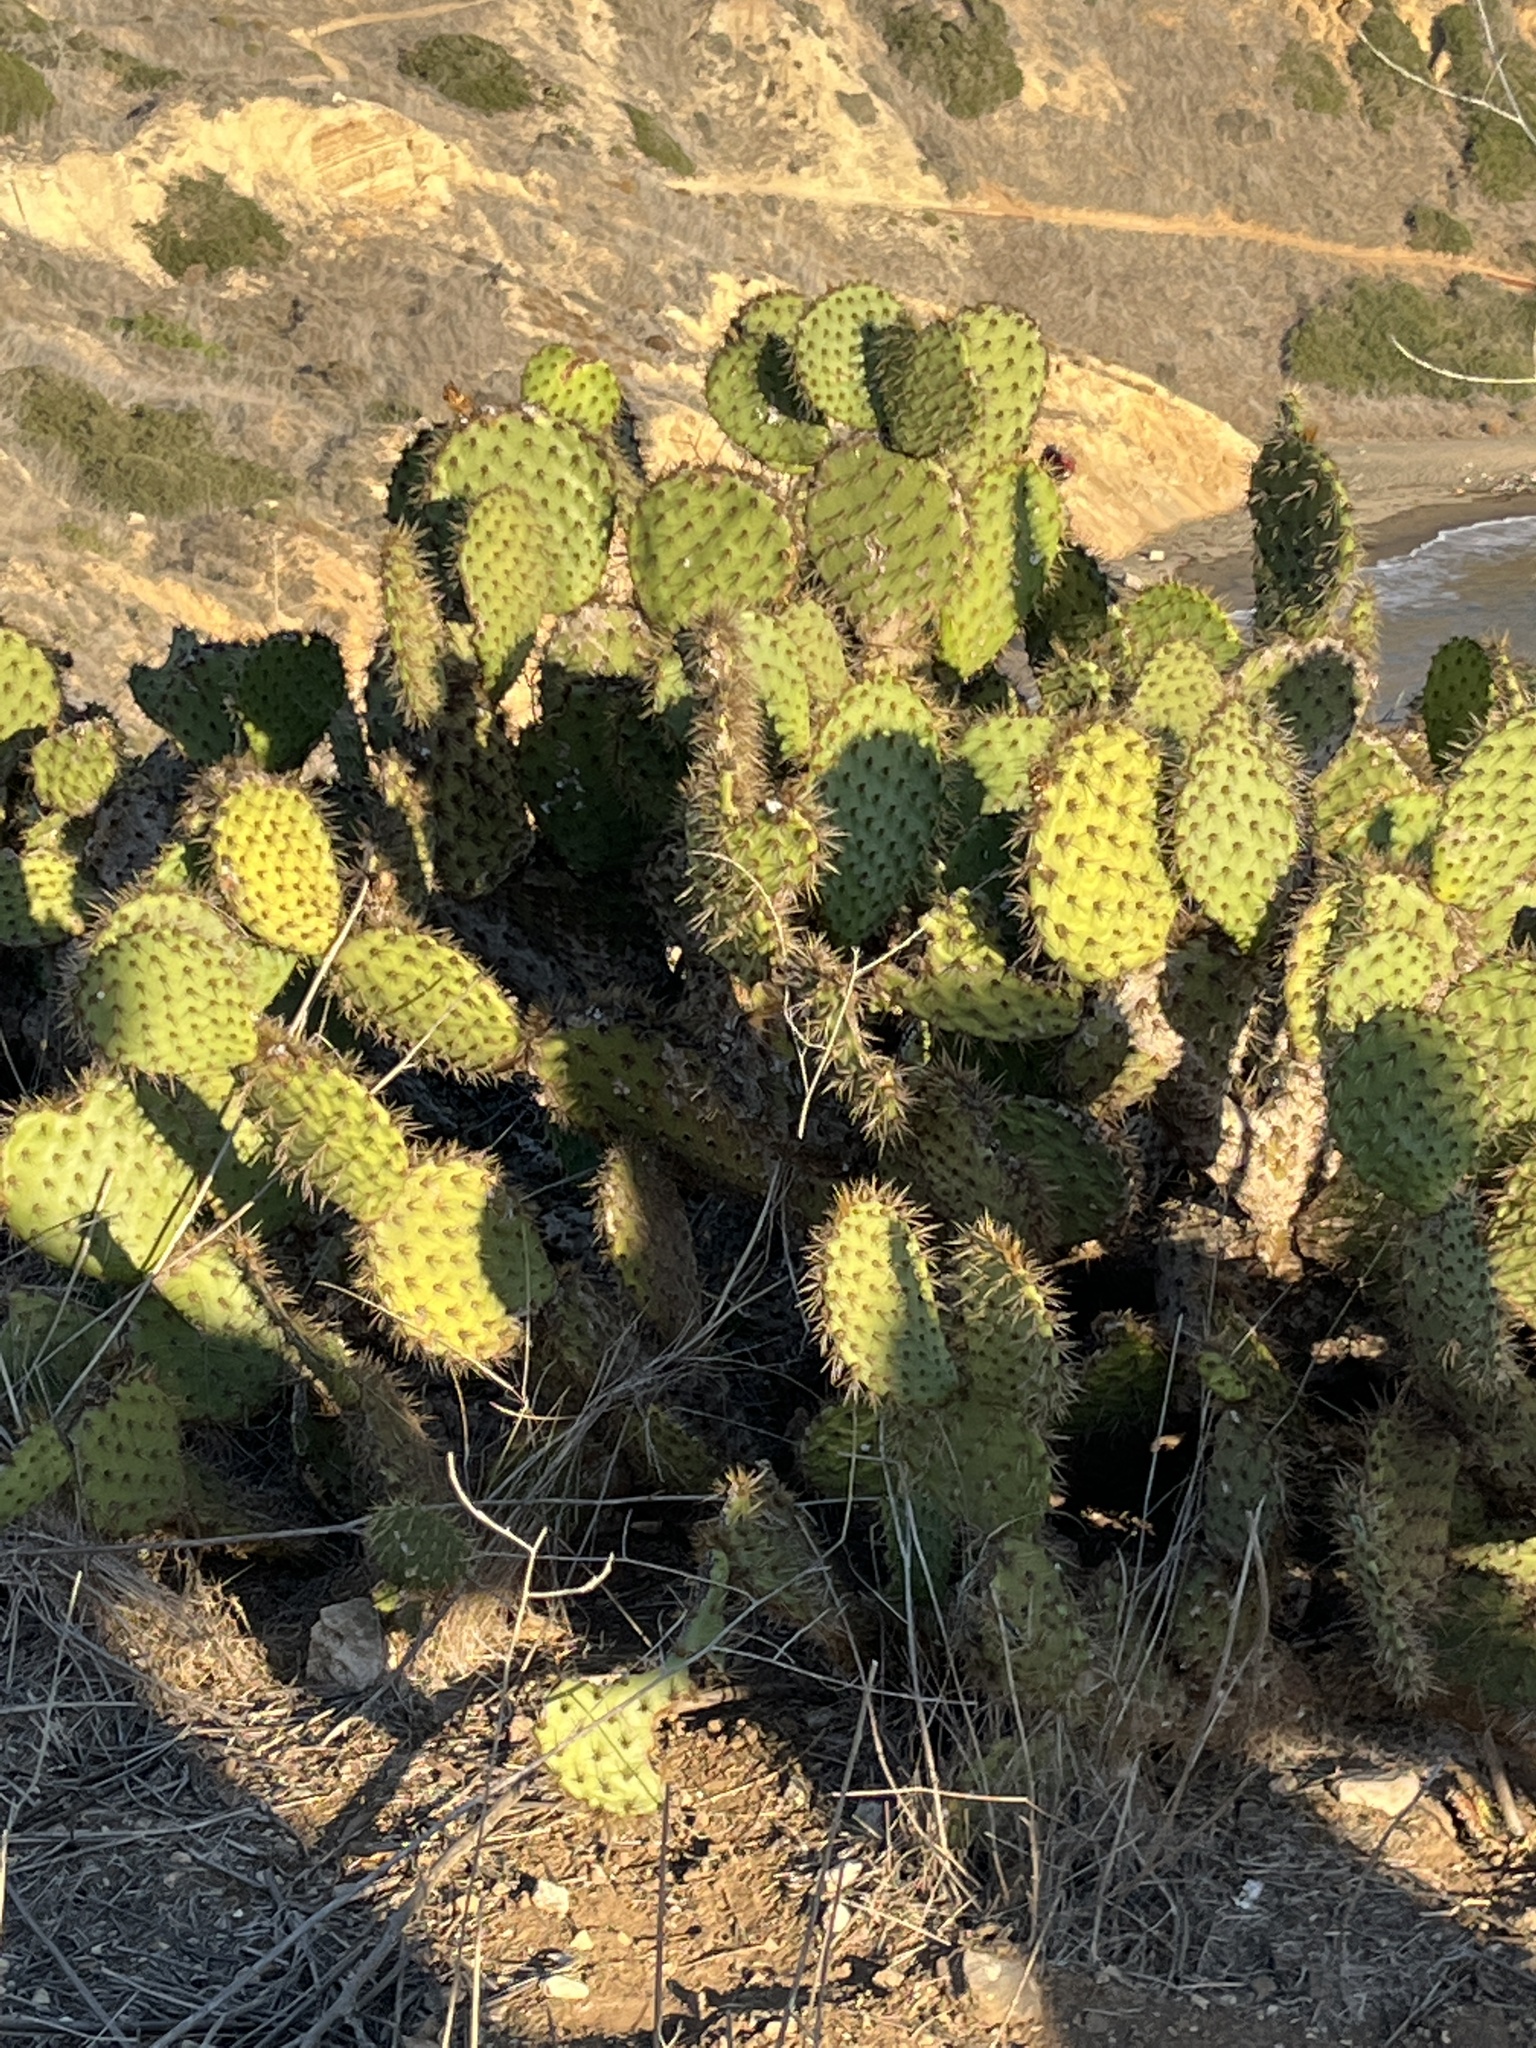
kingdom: Plantae
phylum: Tracheophyta
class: Magnoliopsida
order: Caryophyllales
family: Cactaceae
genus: Opuntia
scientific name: Opuntia littoralis
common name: Coastal prickly-pear
